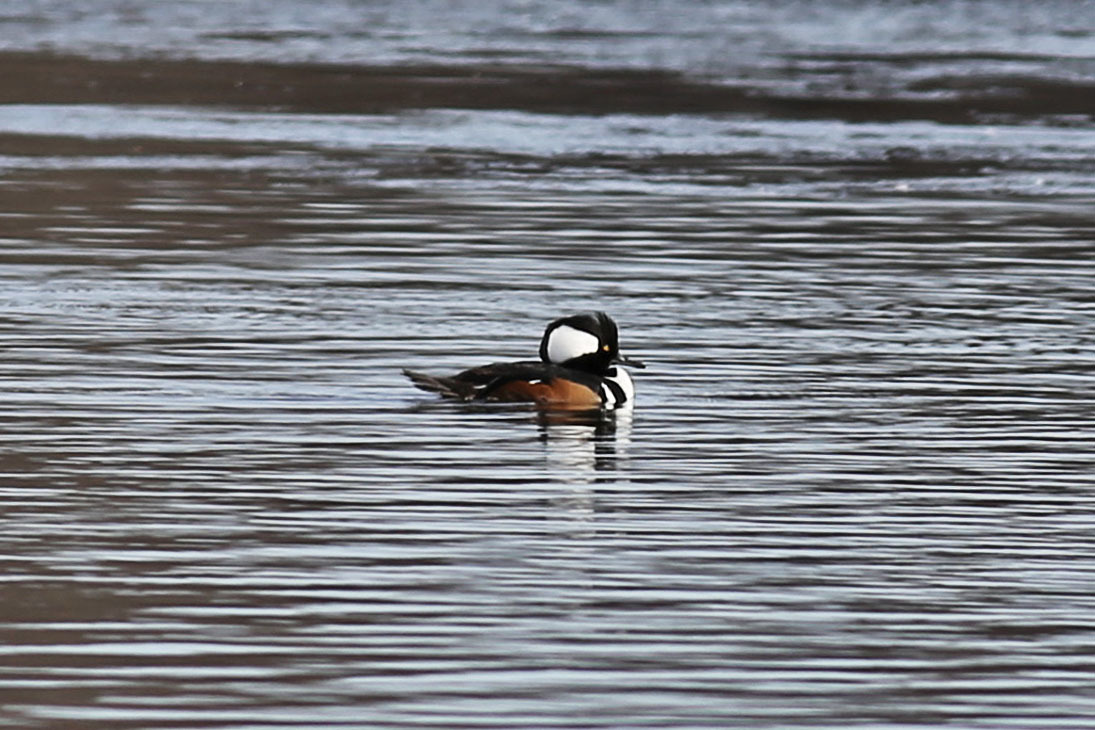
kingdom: Animalia
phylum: Chordata
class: Aves
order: Anseriformes
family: Anatidae
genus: Lophodytes
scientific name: Lophodytes cucullatus
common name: Hooded merganser
